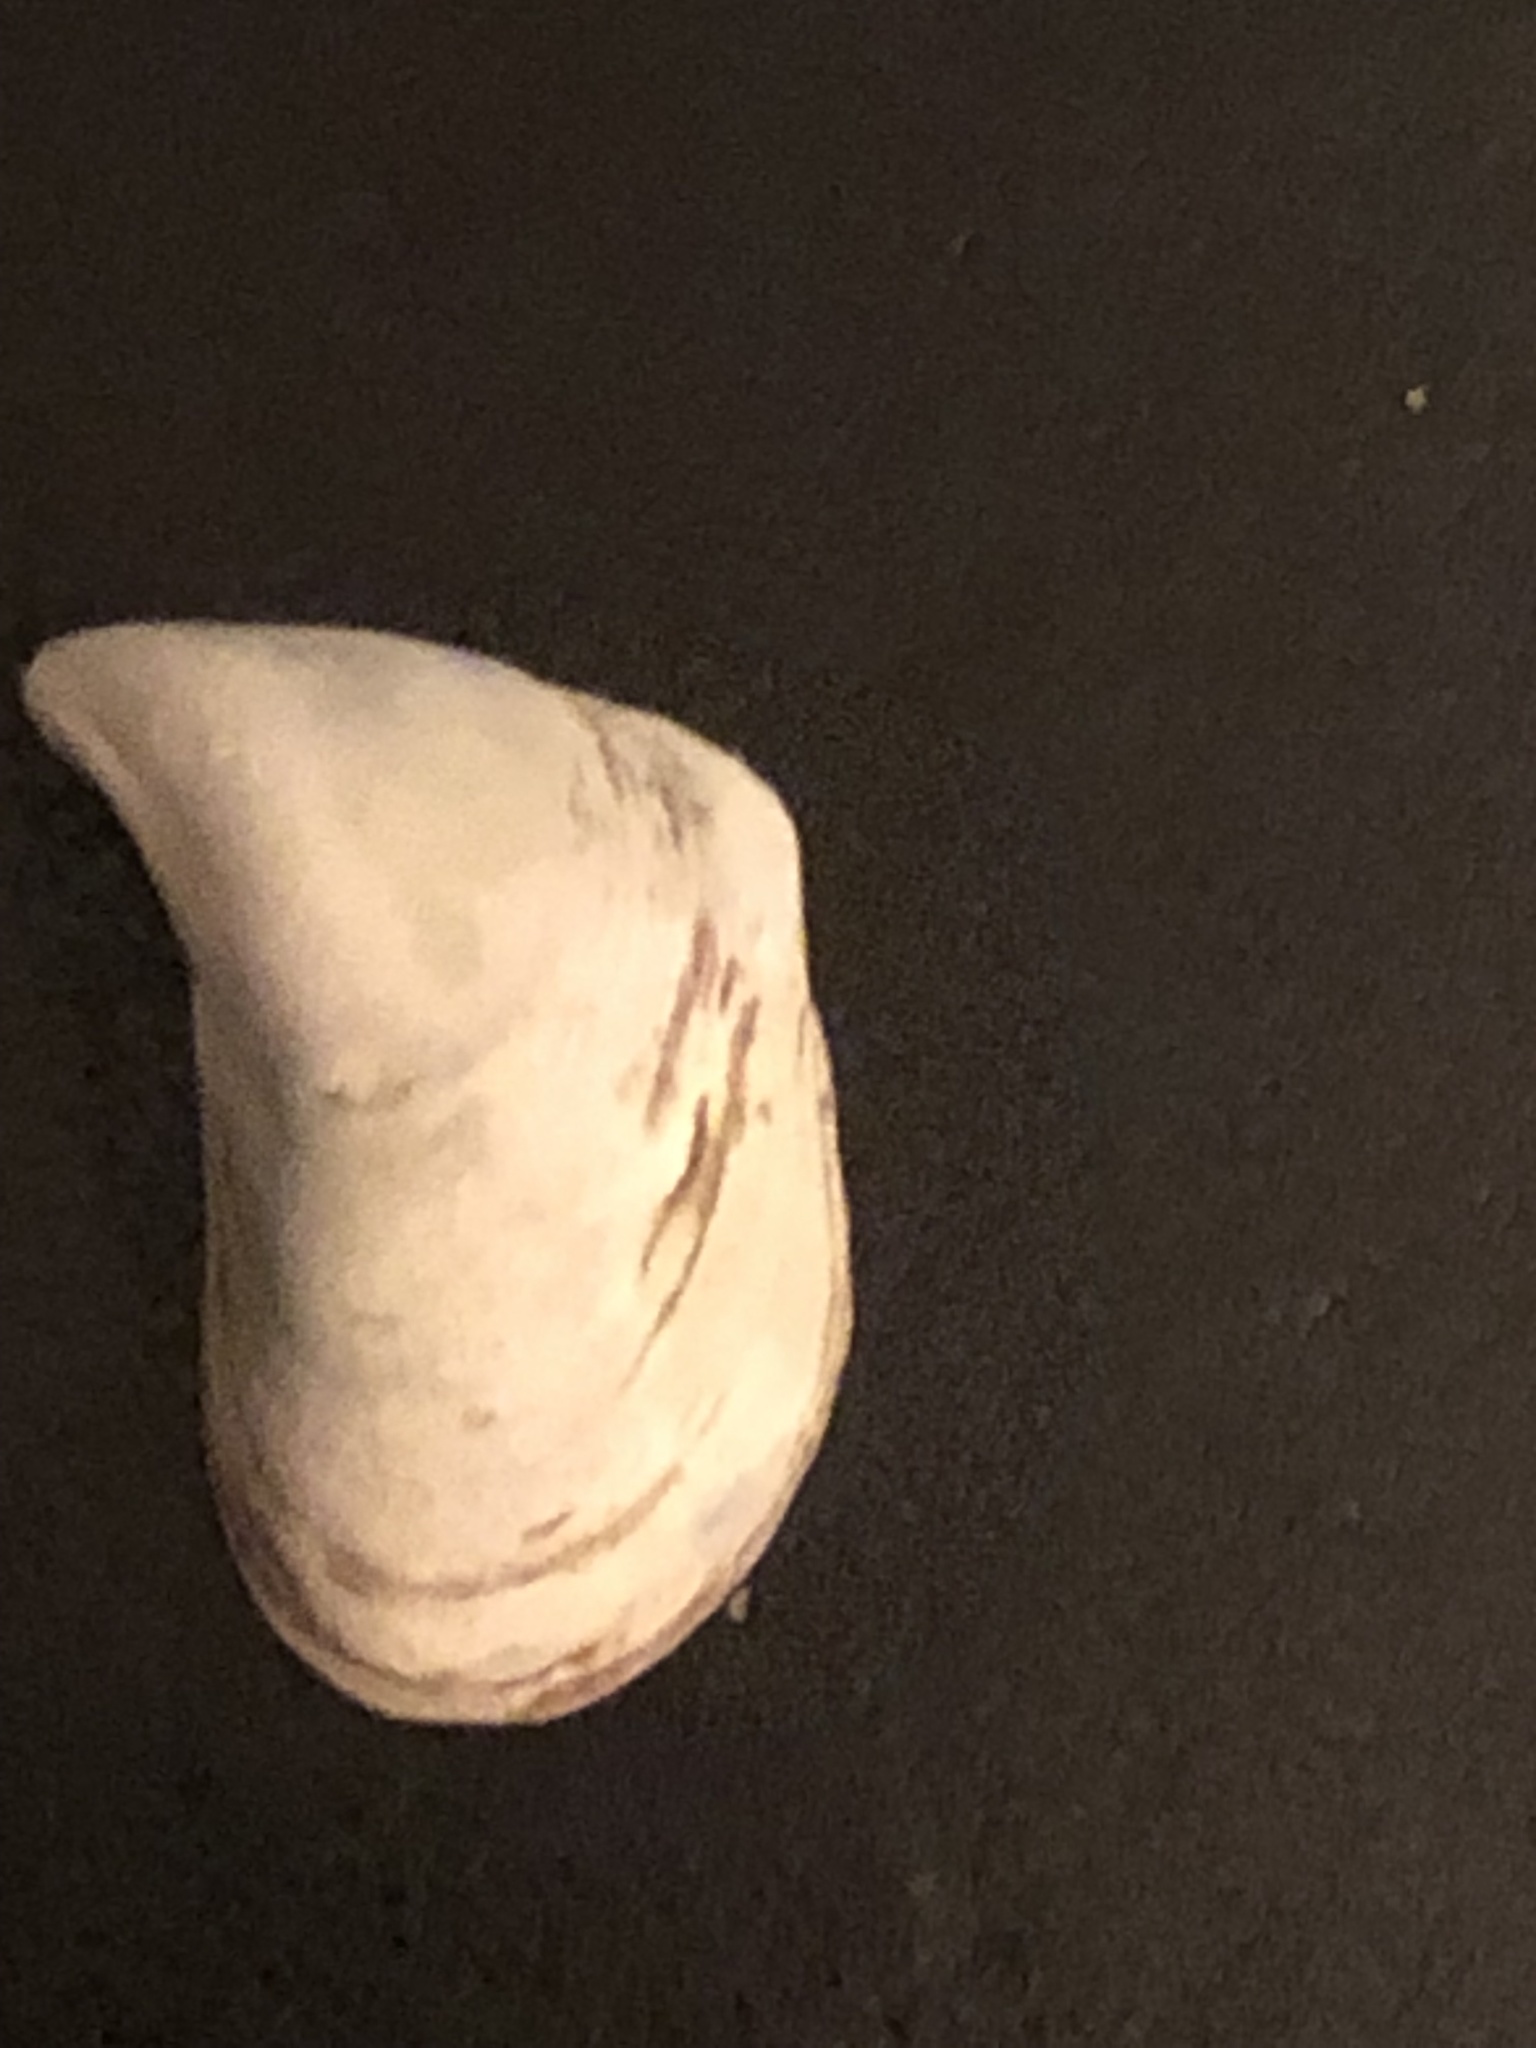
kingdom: Animalia
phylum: Mollusca
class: Bivalvia
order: Myida
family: Dreissenidae
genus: Dreissena
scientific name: Dreissena bugensis
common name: Quagga mussel
